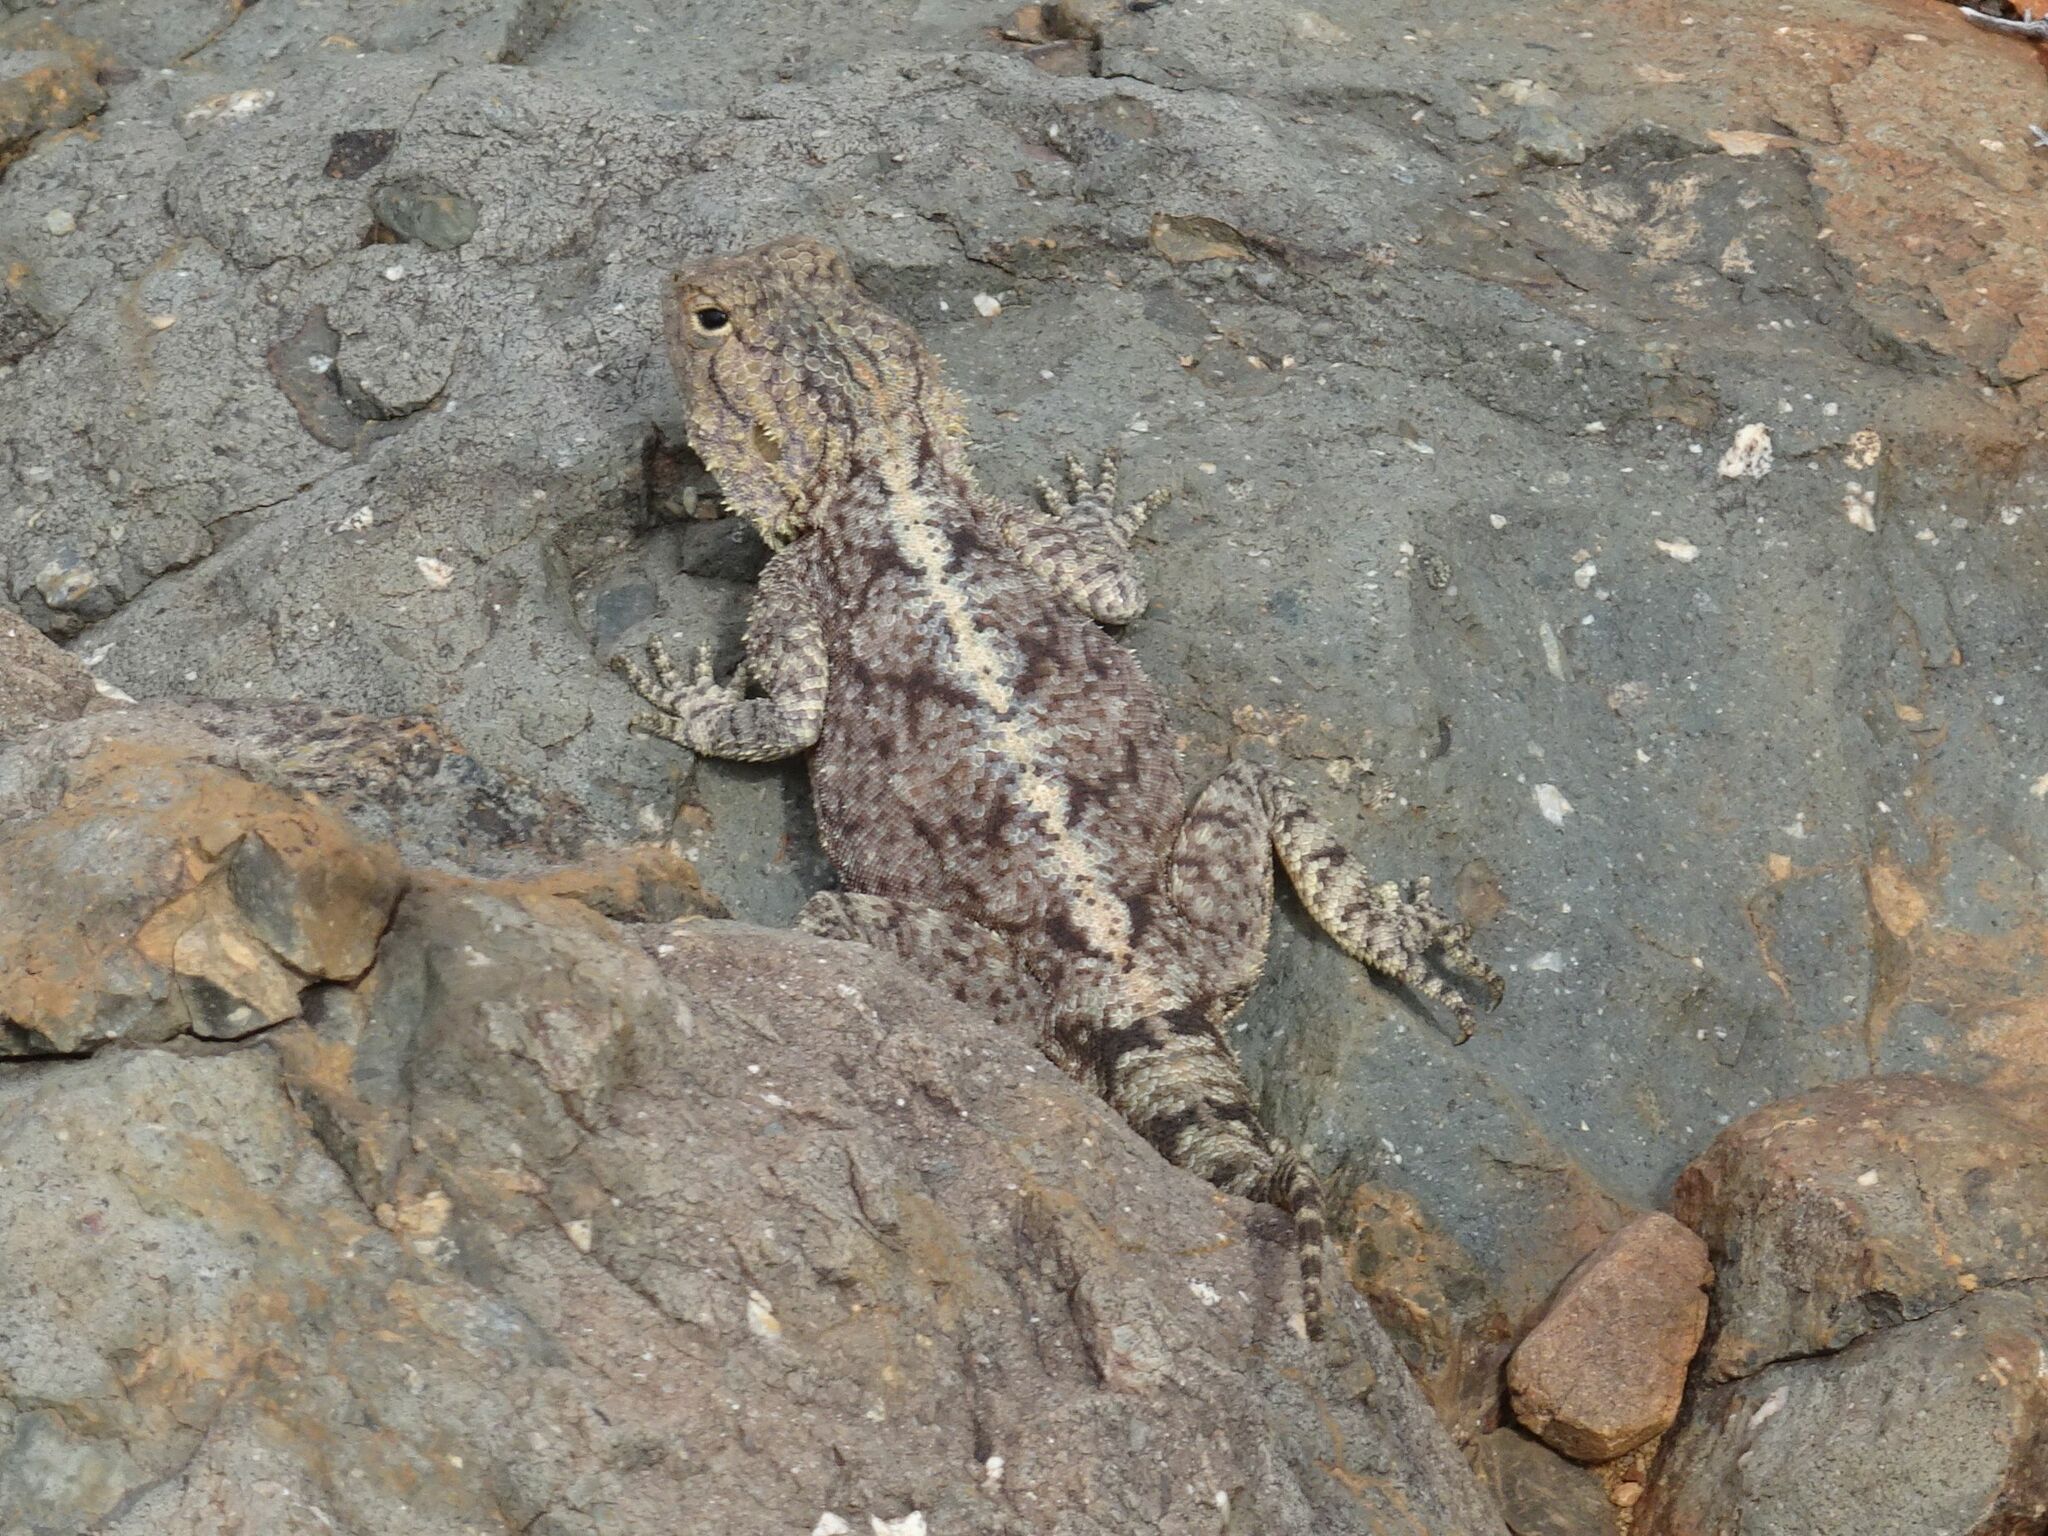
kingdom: Animalia
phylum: Chordata
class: Squamata
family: Agamidae
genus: Agama
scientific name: Agama atra
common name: Southern african rock agama
